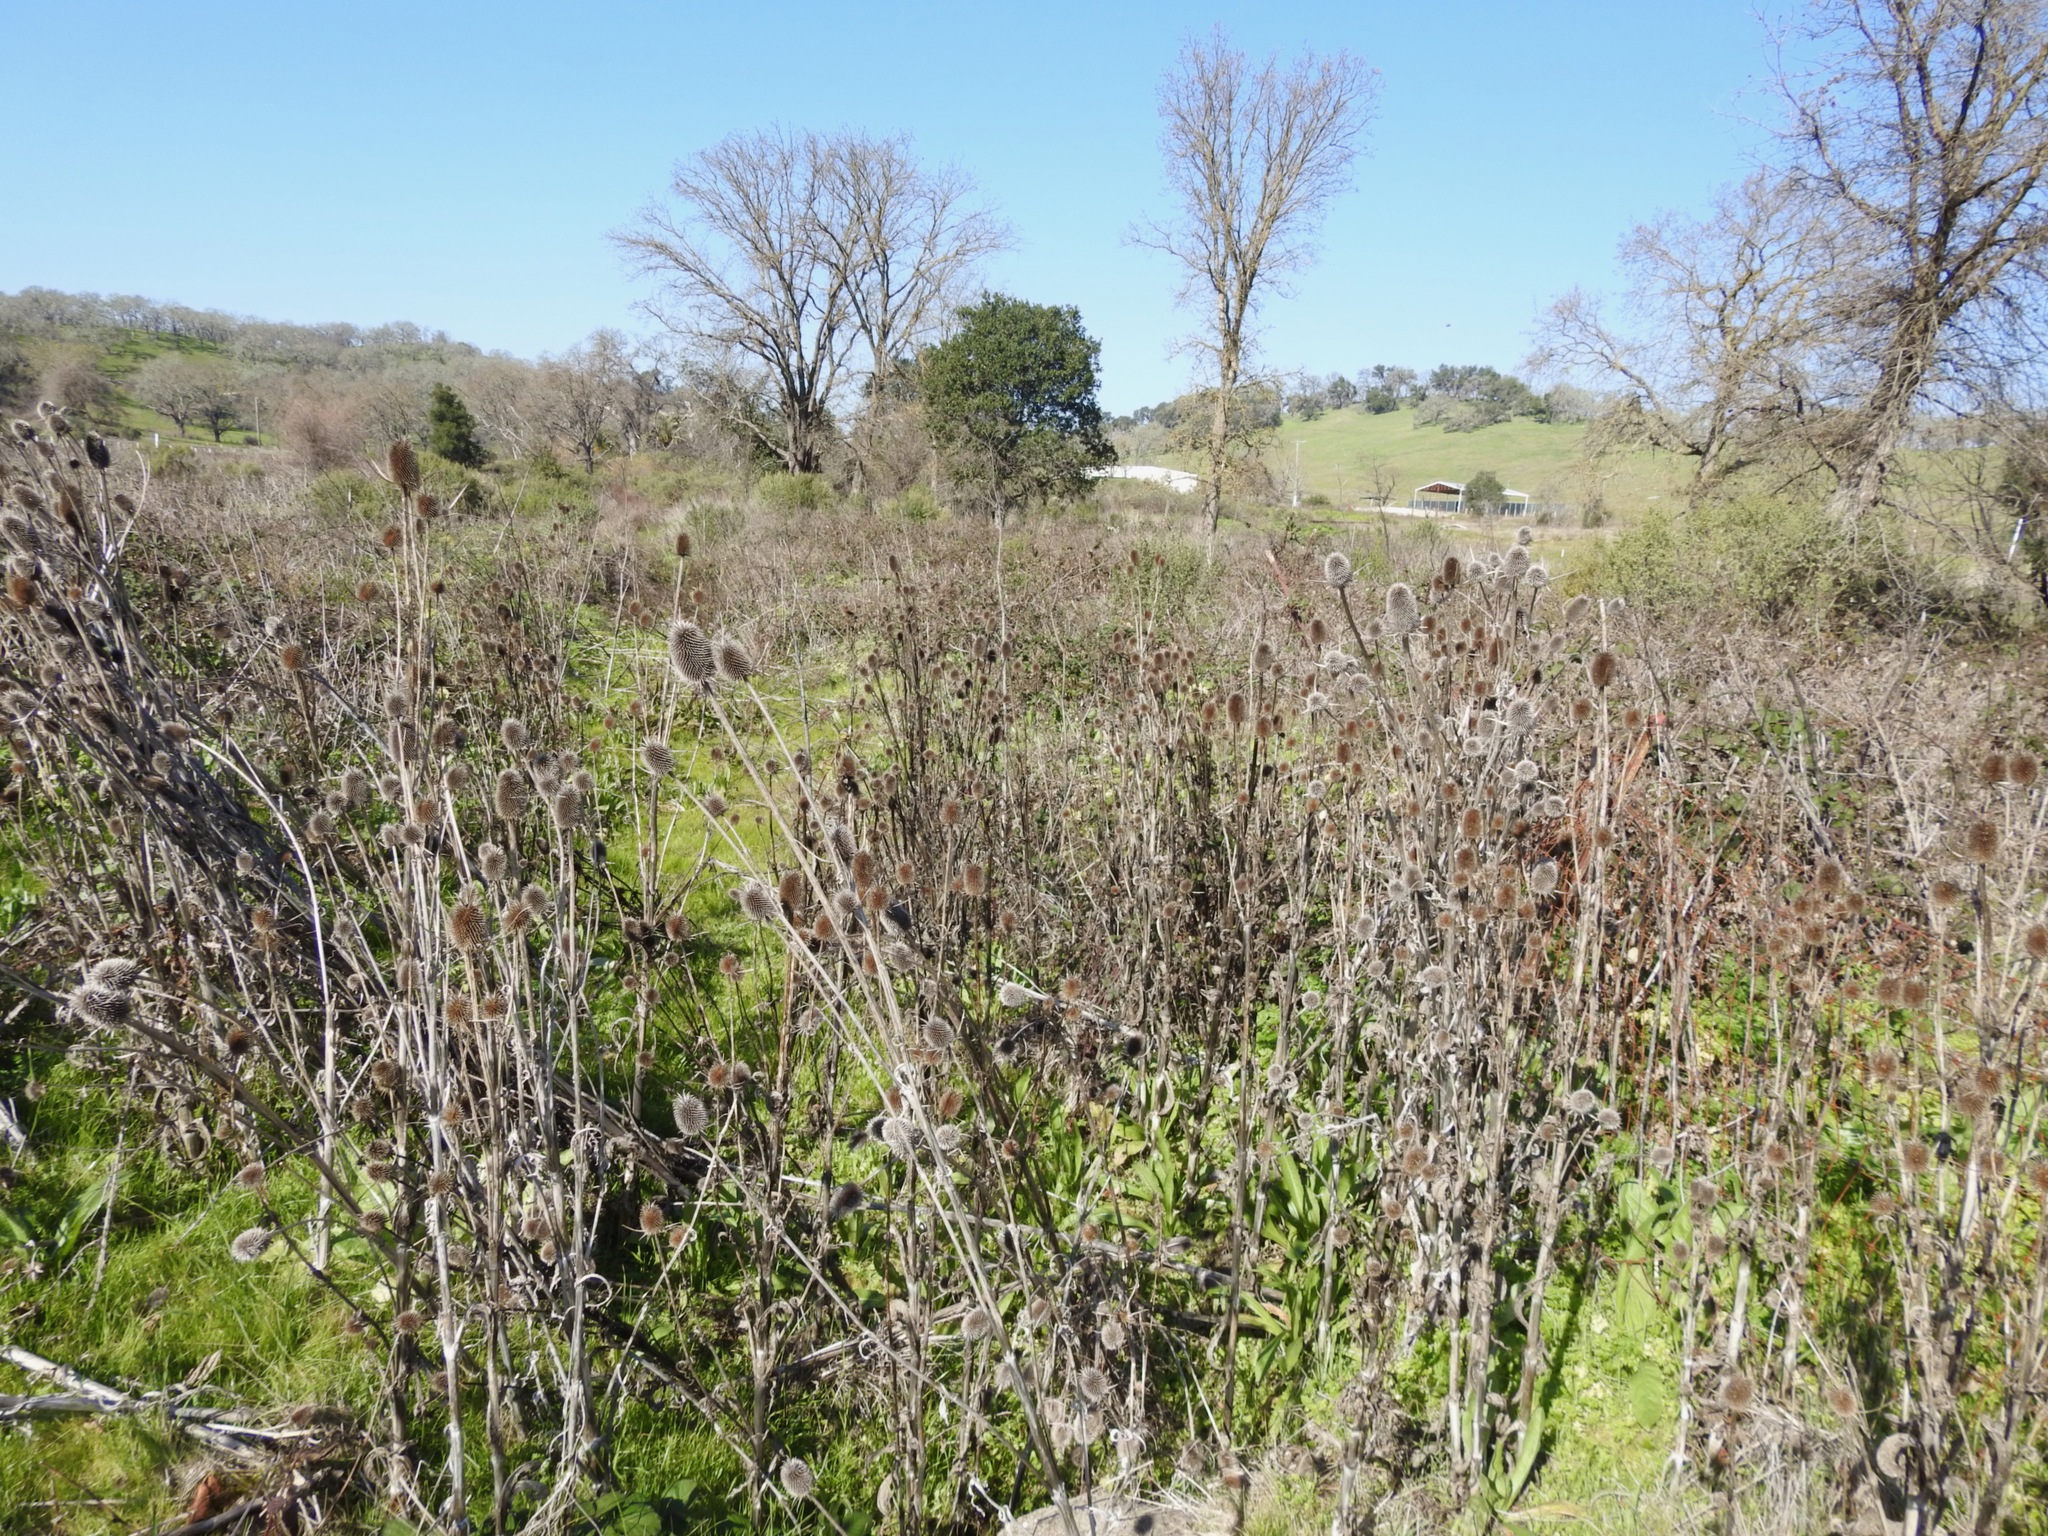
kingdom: Plantae
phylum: Tracheophyta
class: Magnoliopsida
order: Dipsacales
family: Caprifoliaceae
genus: Dipsacus
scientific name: Dipsacus sativus
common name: Fuller's teasel
